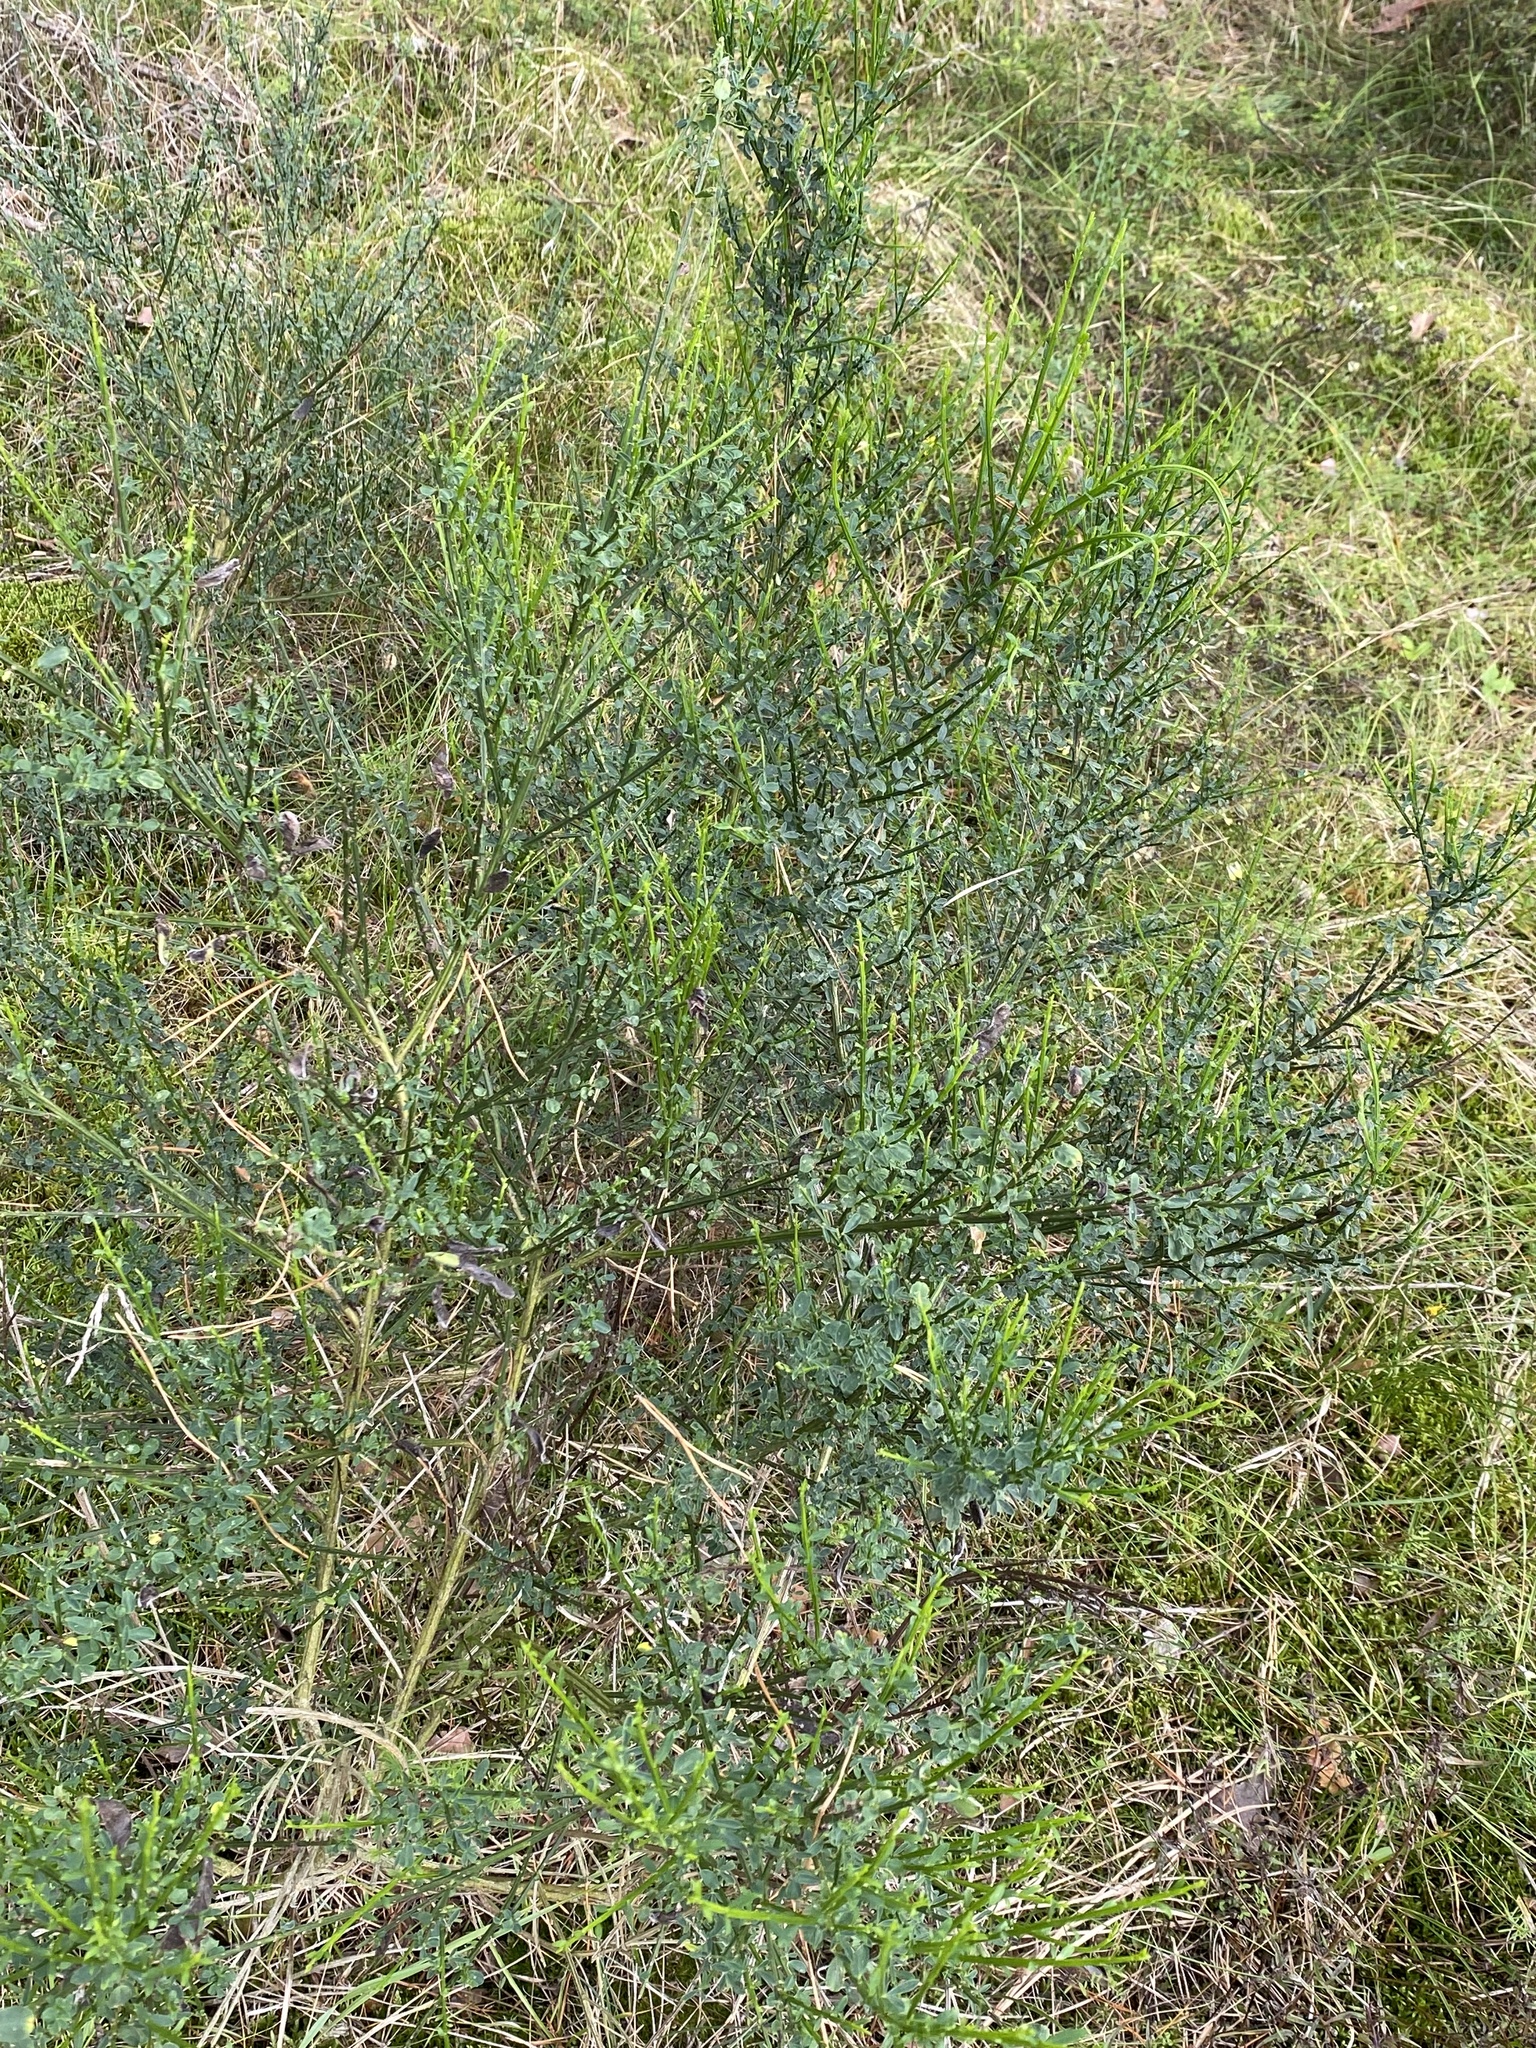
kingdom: Plantae
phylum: Tracheophyta
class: Magnoliopsida
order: Fabales
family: Fabaceae
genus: Cytisus
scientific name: Cytisus scoparius
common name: Scotch broom
